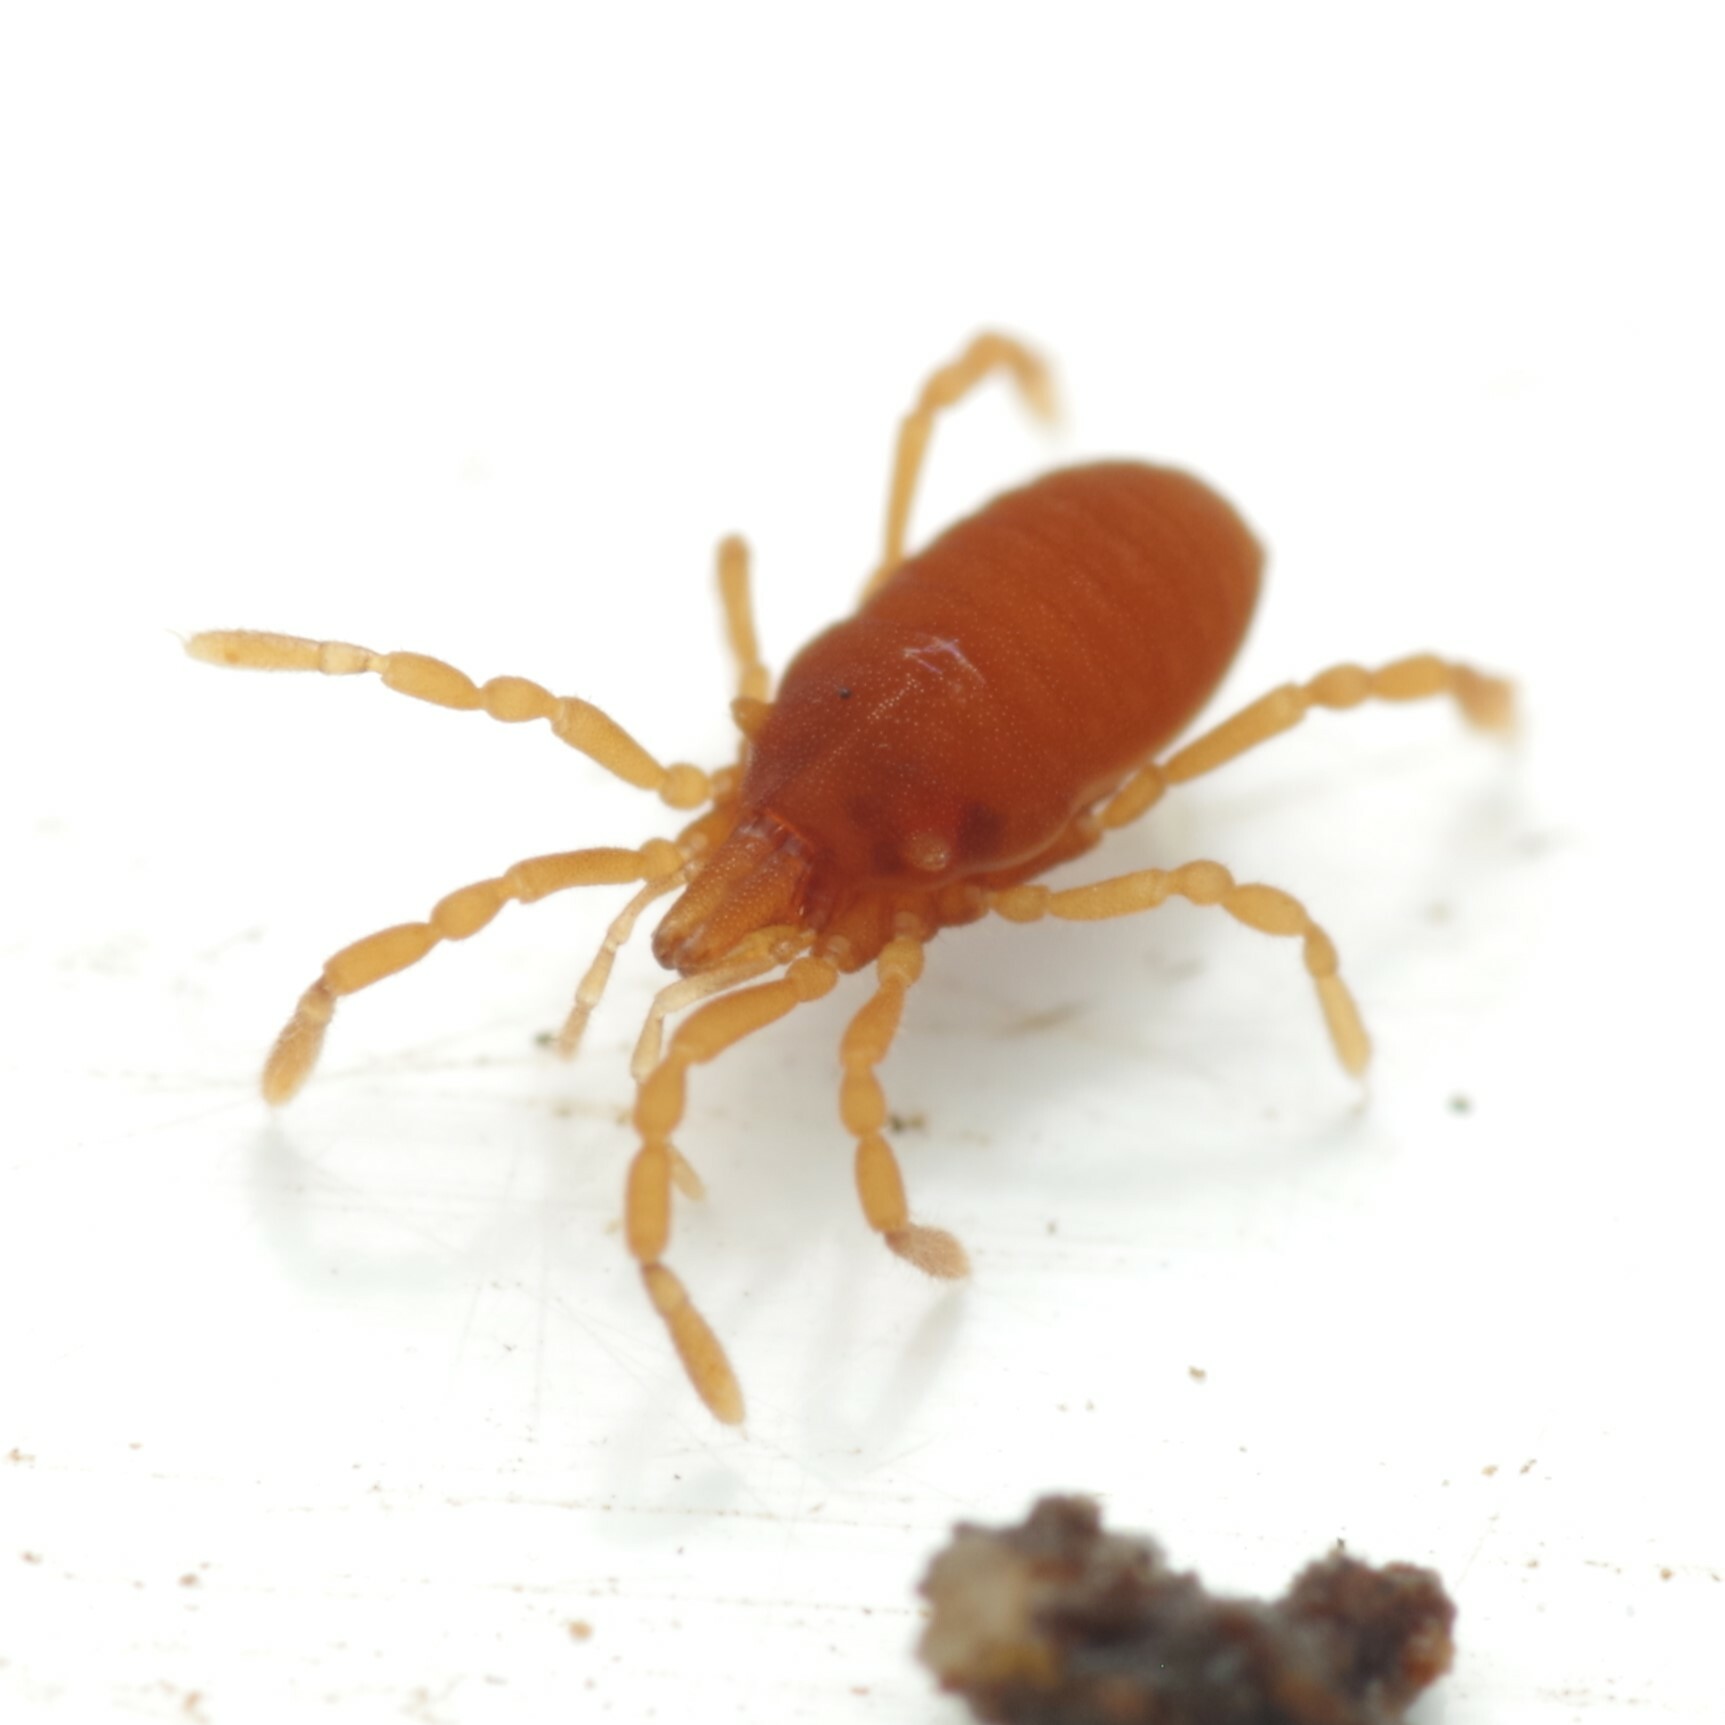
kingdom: Animalia
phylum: Arthropoda
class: Arachnida
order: Opiliones
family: Sironidae
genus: Siro
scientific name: Siro rubens
